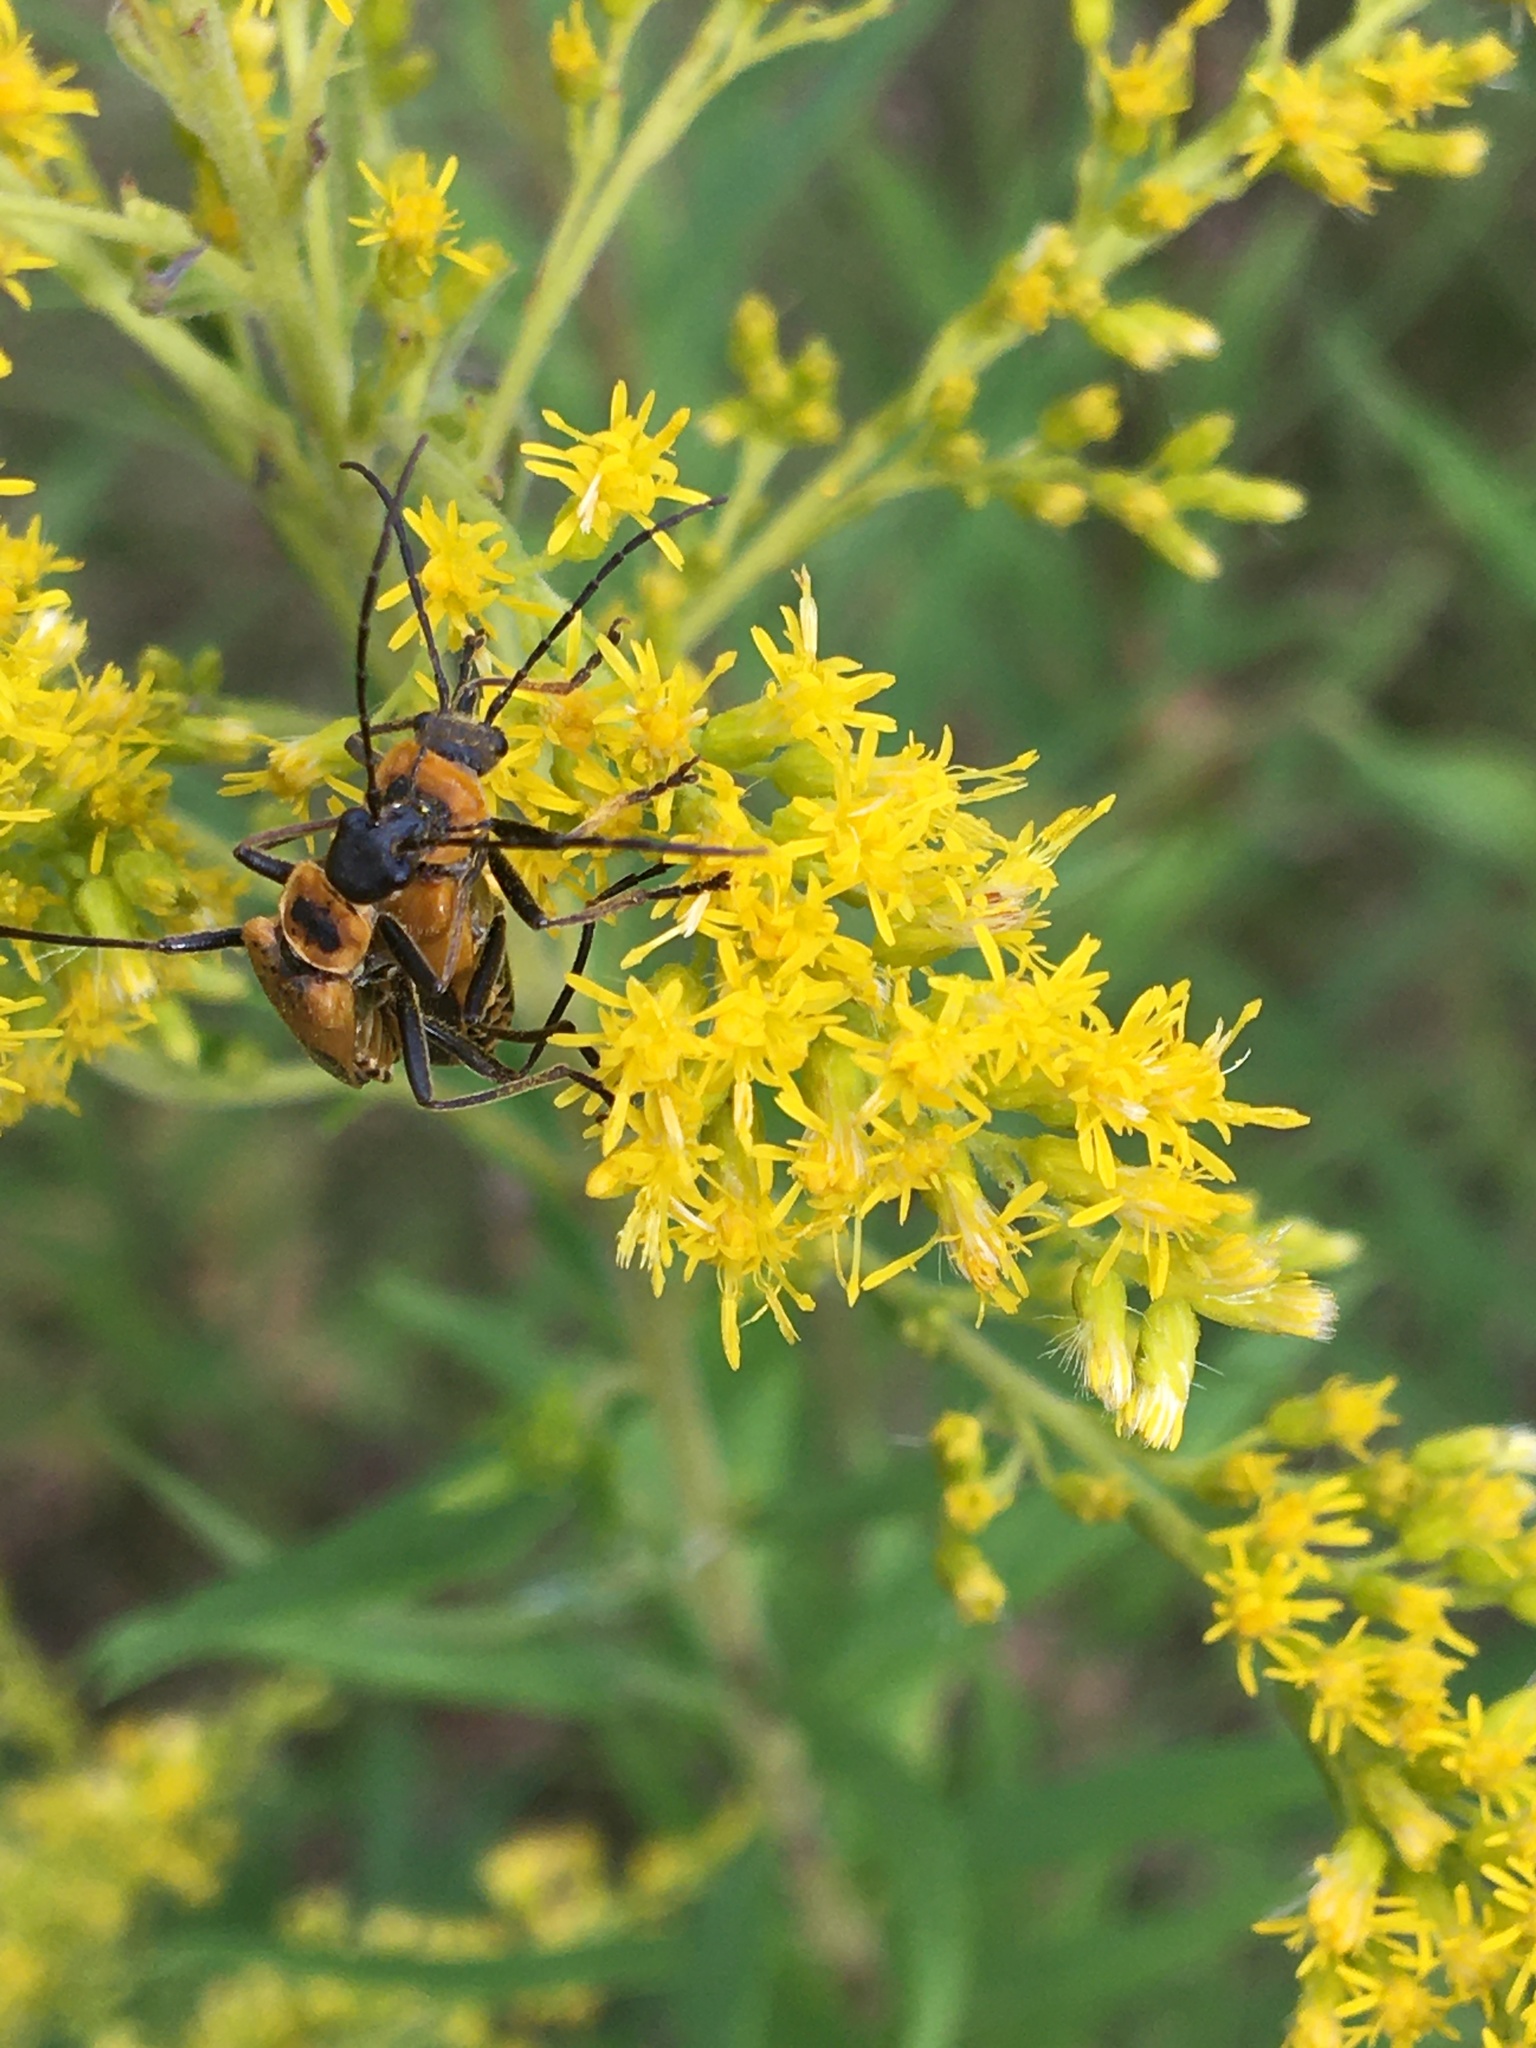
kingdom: Animalia
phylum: Arthropoda
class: Insecta
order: Coleoptera
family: Cantharidae
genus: Chauliognathus
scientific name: Chauliognathus pensylvanicus
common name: Goldenrod soldier beetle
